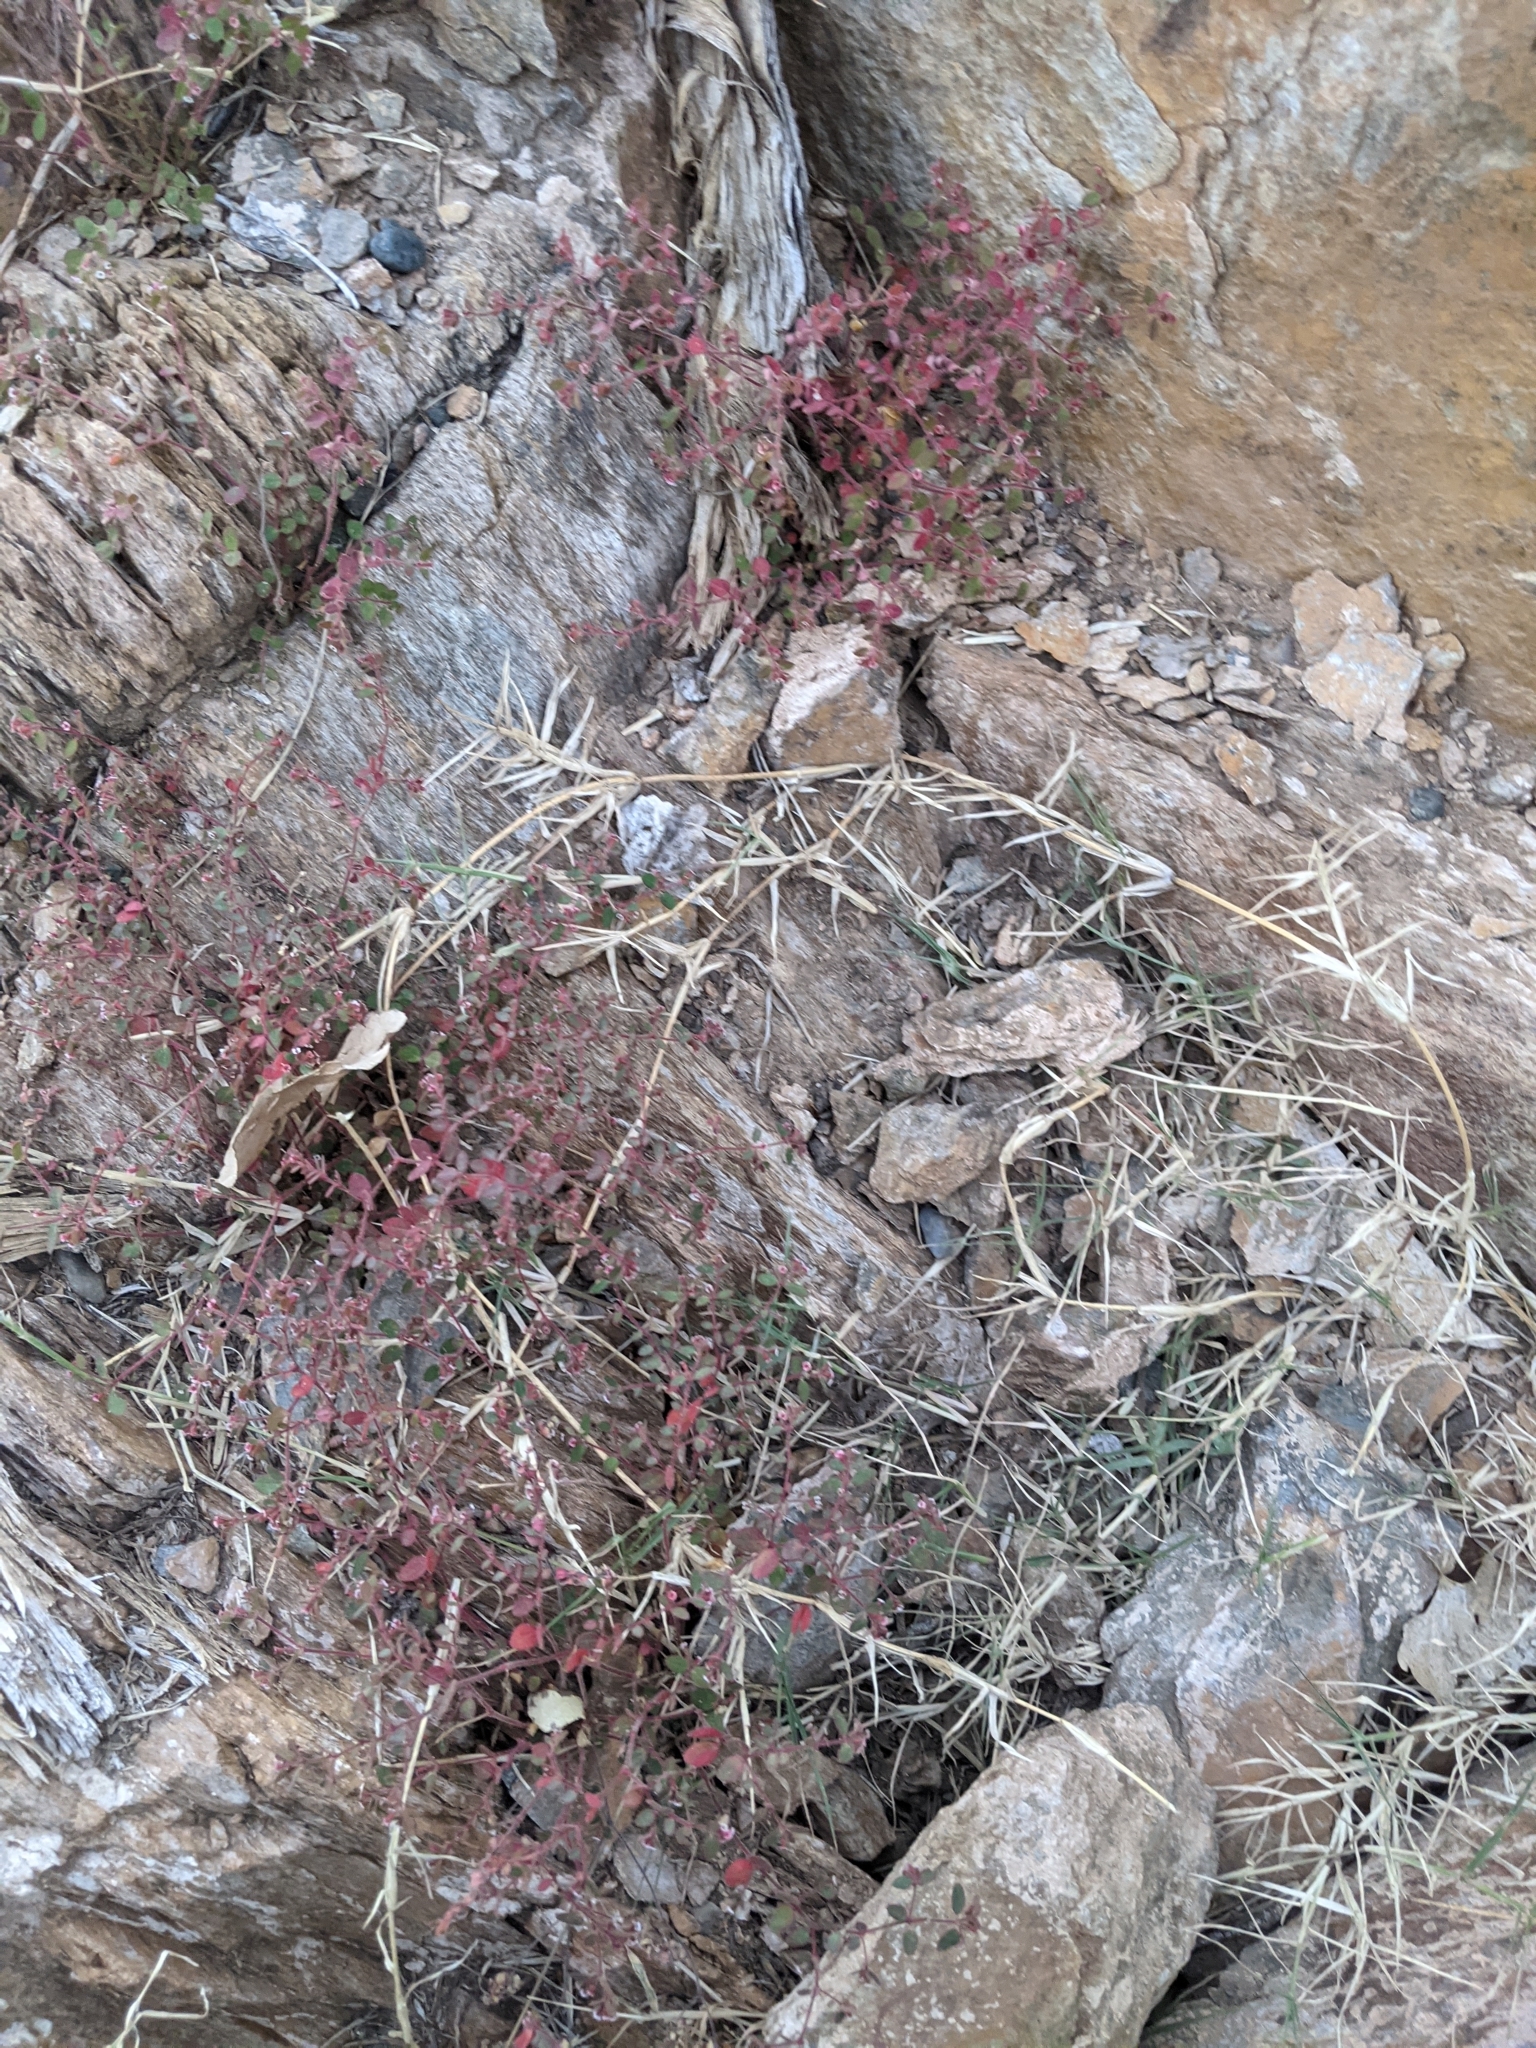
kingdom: Plantae
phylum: Tracheophyta
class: Magnoliopsida
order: Malpighiales
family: Euphorbiaceae
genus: Euphorbia
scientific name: Euphorbia arizonica
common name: Arizona spurge
